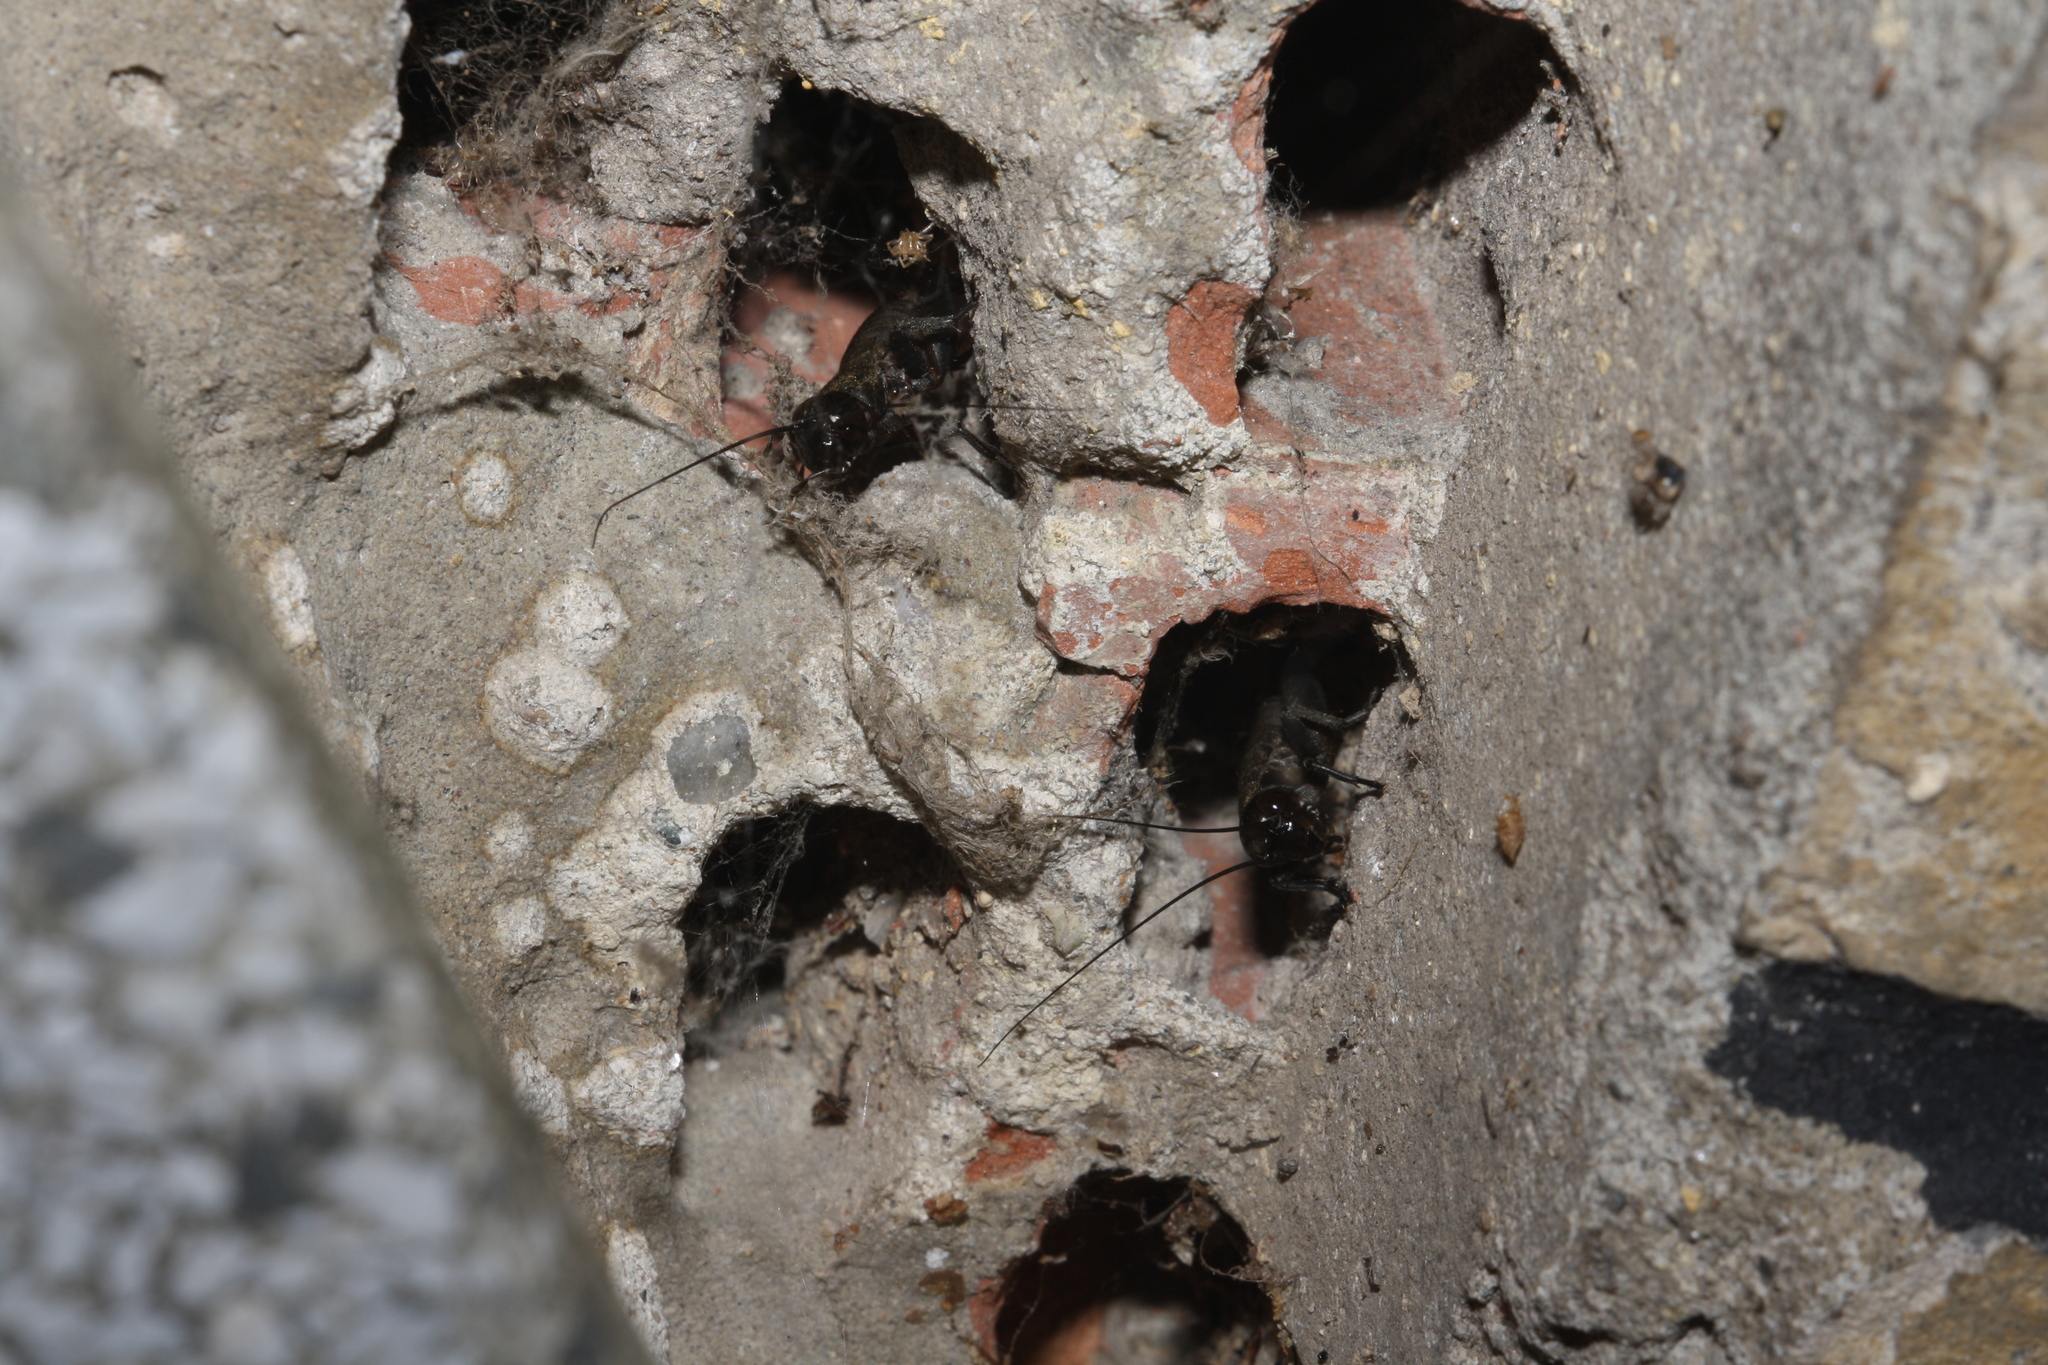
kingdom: Animalia
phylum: Arthropoda
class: Insecta
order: Orthoptera
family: Gryllidae
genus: Melanogryllus
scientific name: Melanogryllus desertus
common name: Desert cricket
